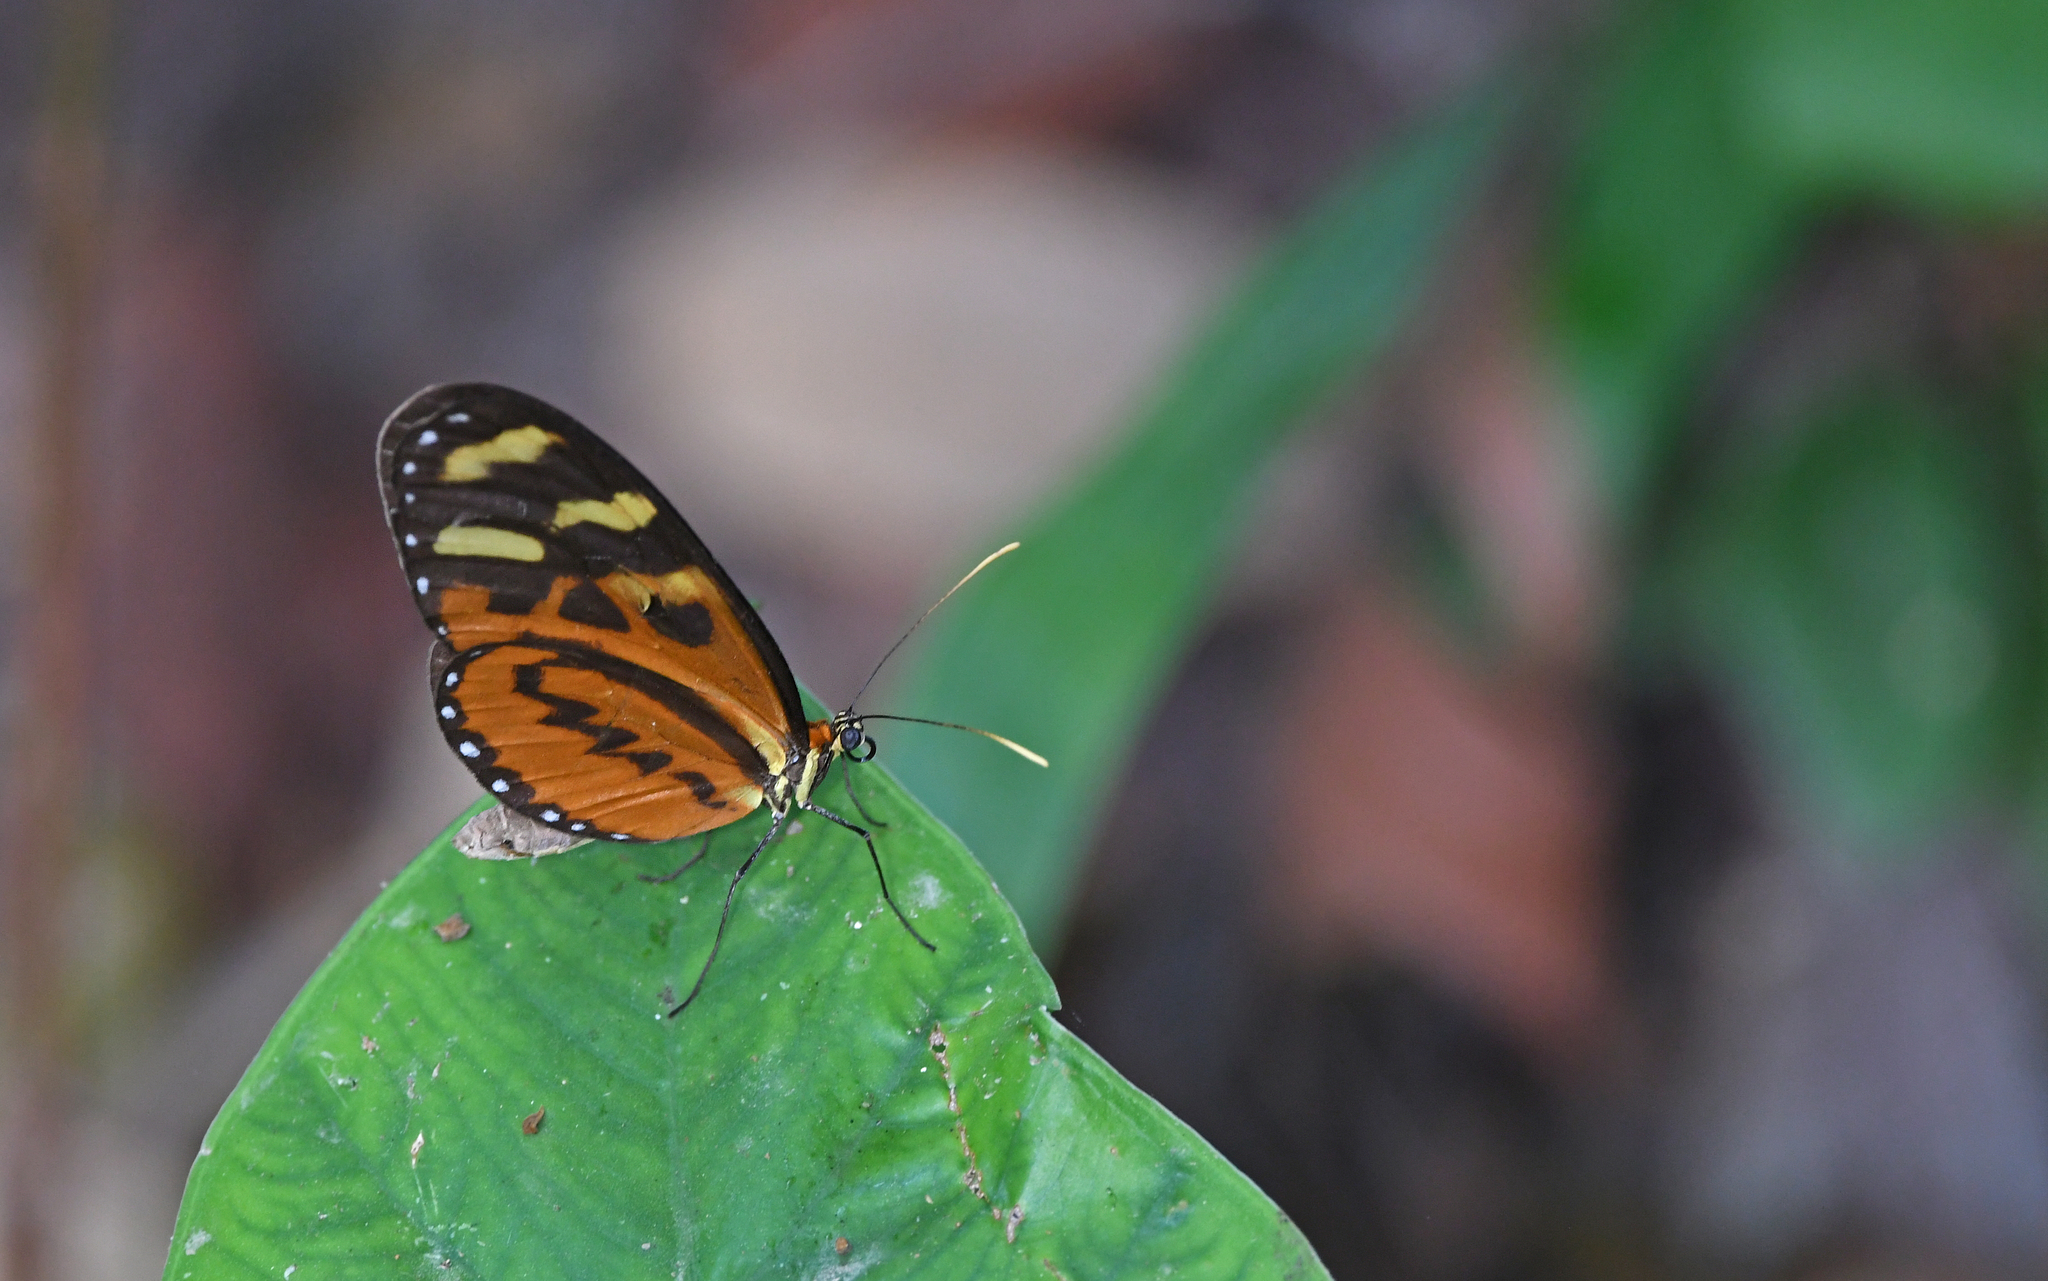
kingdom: Animalia
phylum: Arthropoda
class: Insecta
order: Lepidoptera
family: Nymphalidae
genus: Mechanitis
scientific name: Mechanitis polymnia
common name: Disturbed tigerwing
